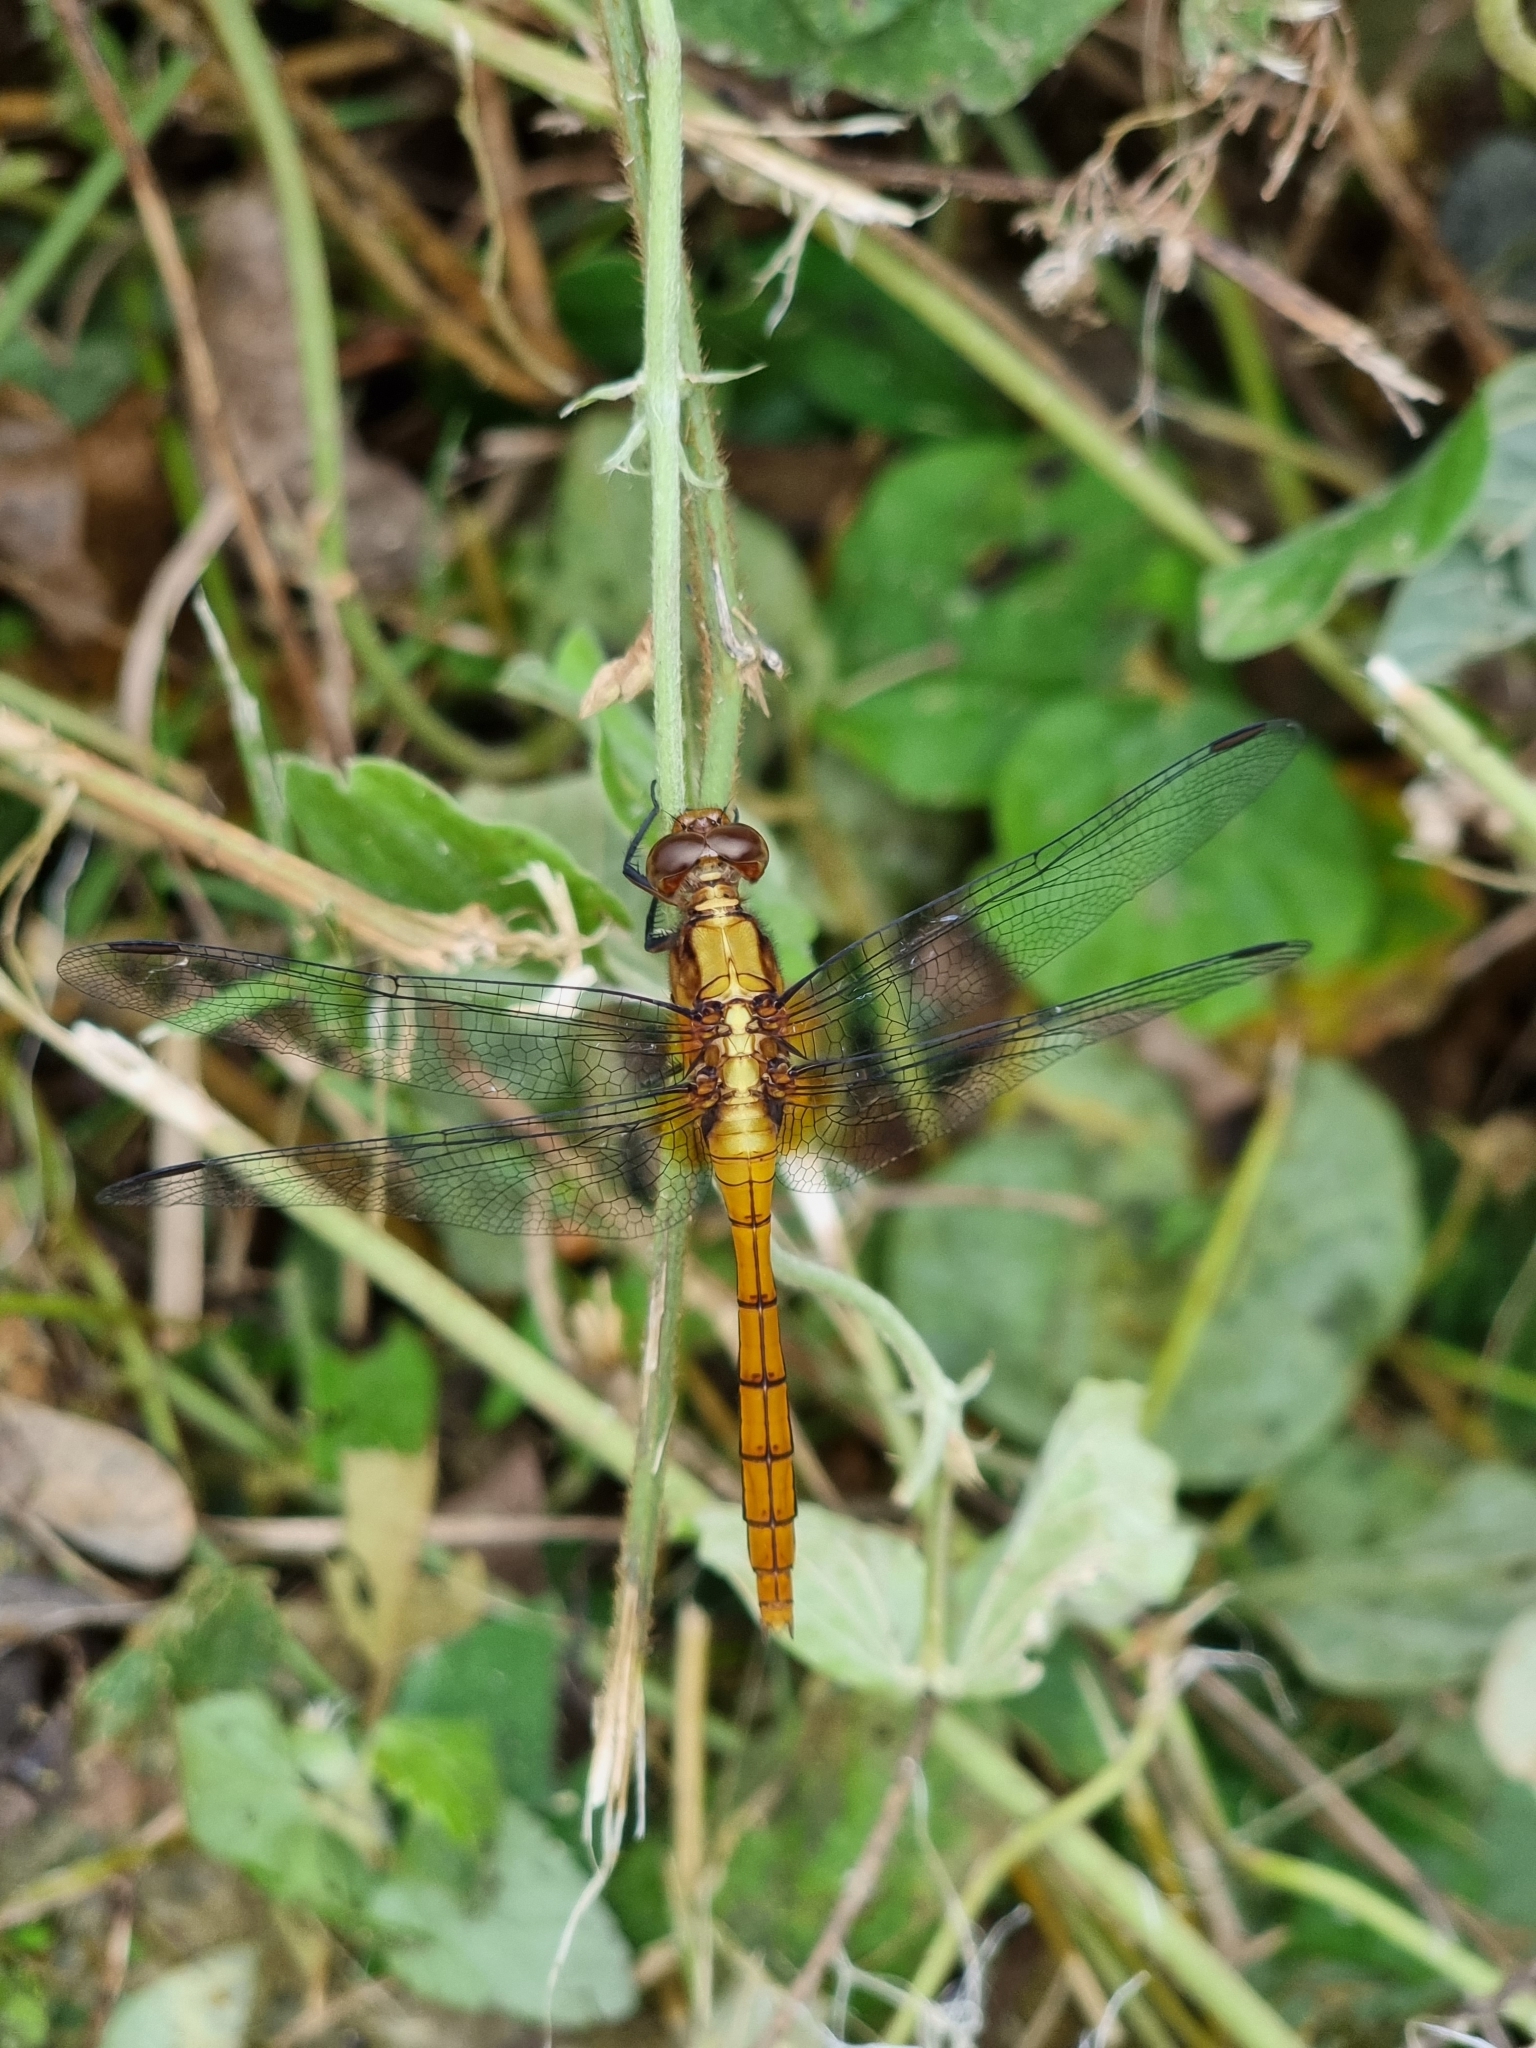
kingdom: Animalia
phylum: Arthropoda
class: Insecta
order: Odonata
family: Libellulidae
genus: Orthetrum
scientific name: Orthetrum villosovittatum
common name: Firery skimmer
